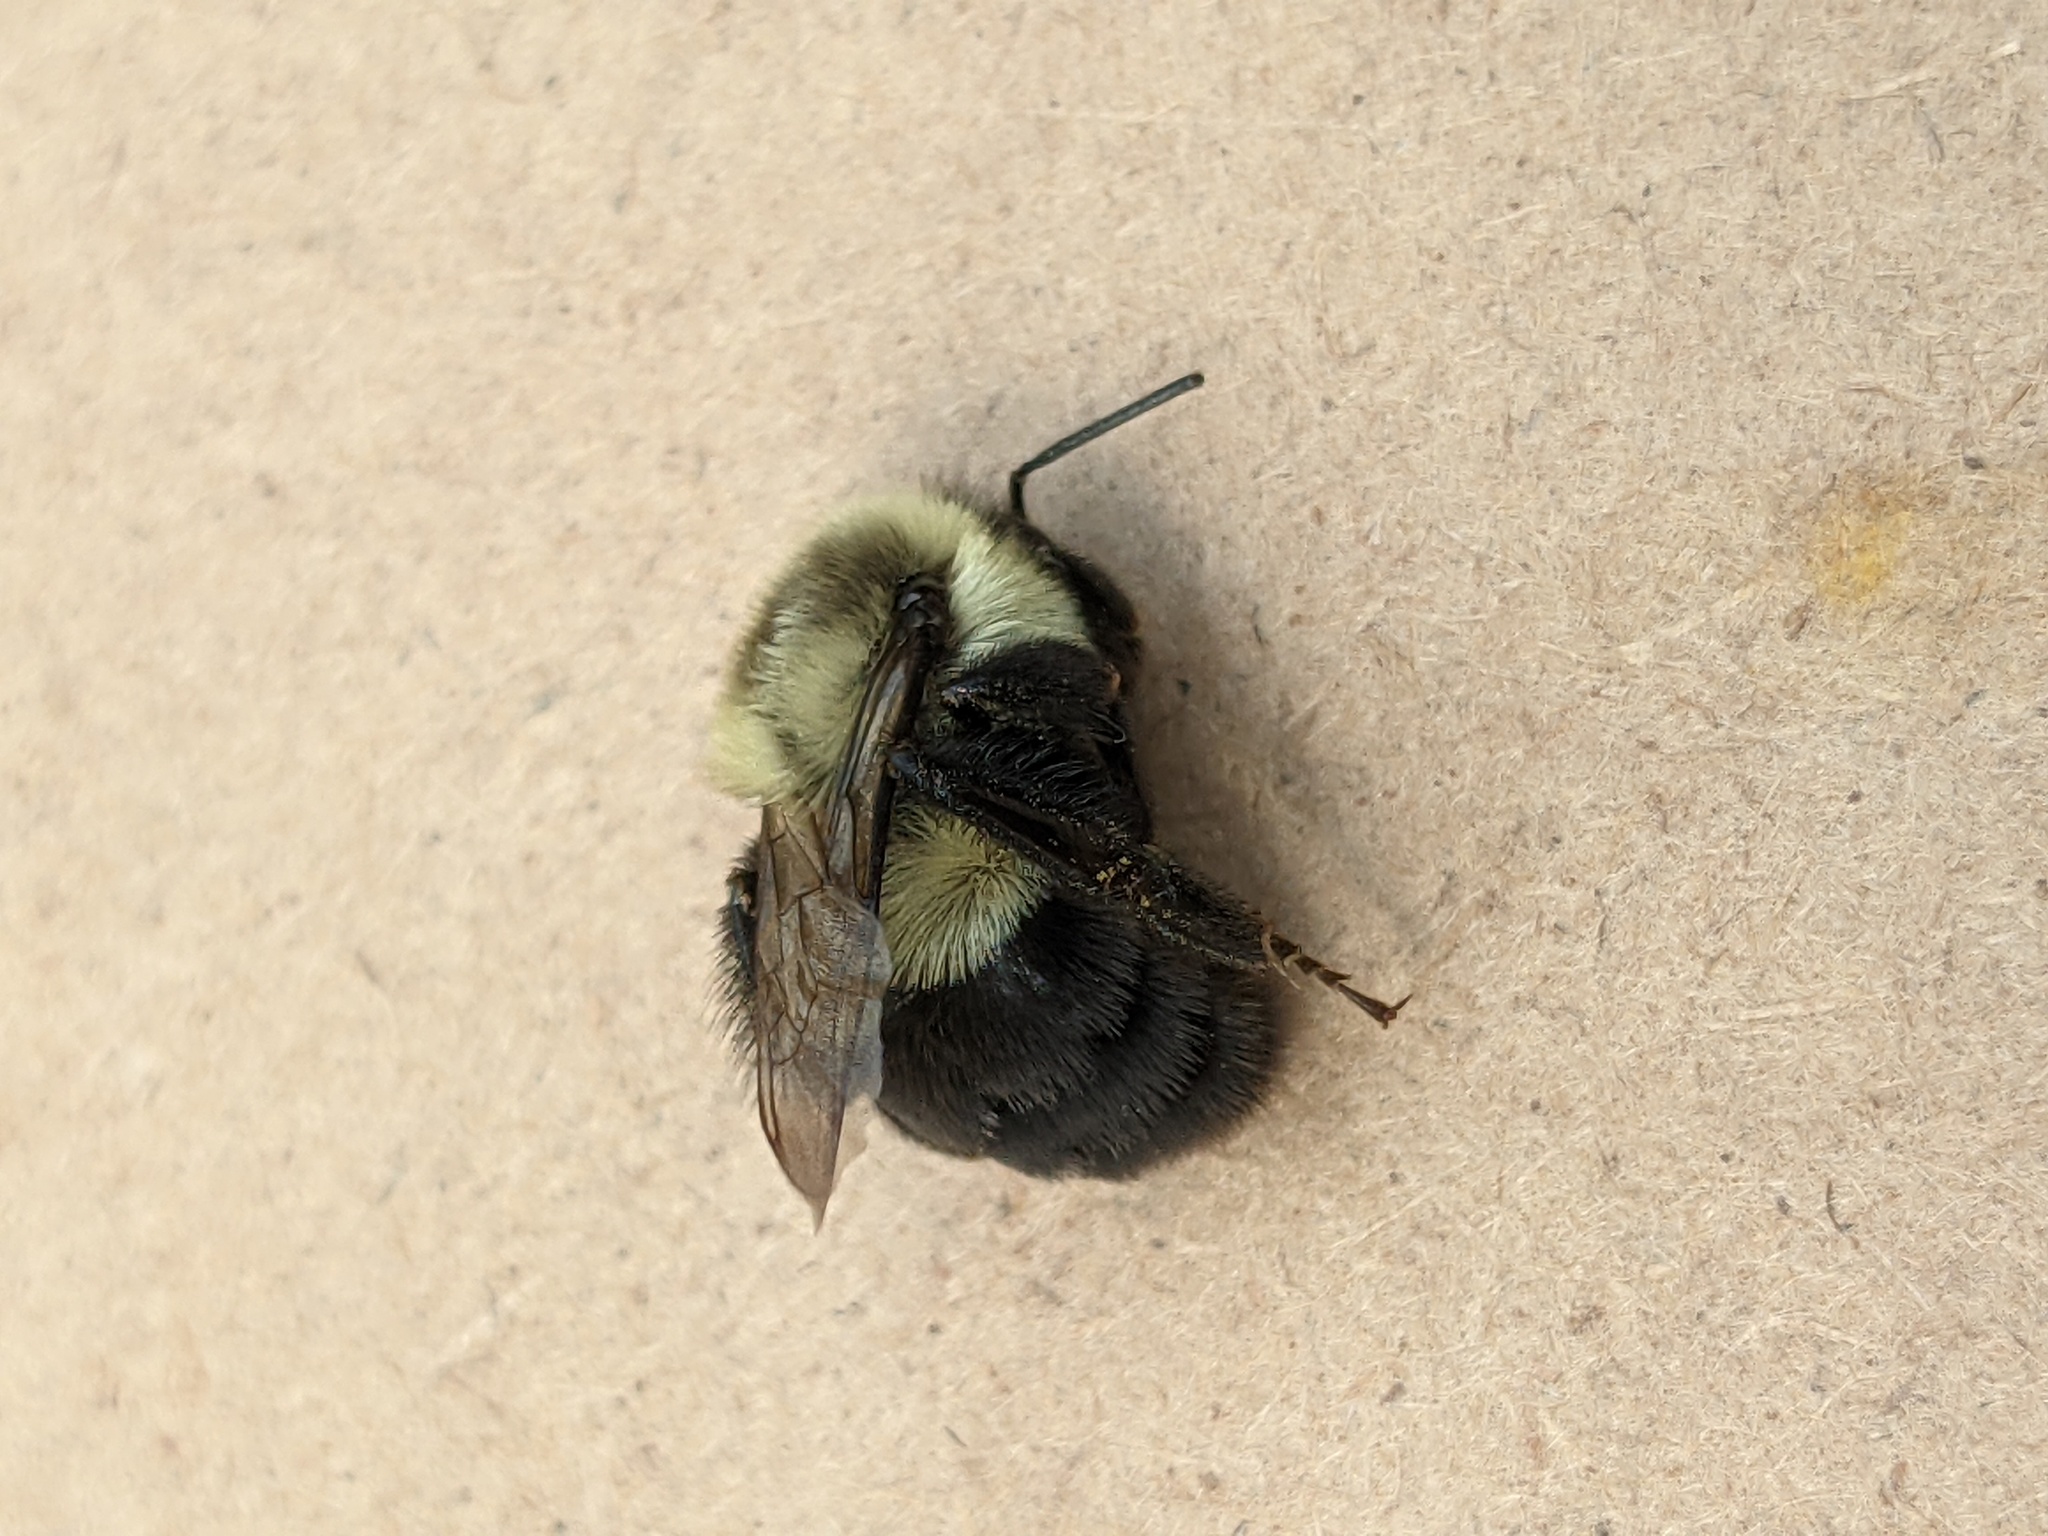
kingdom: Animalia
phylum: Arthropoda
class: Insecta
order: Hymenoptera
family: Apidae
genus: Bombus
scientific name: Bombus impatiens
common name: Common eastern bumble bee
